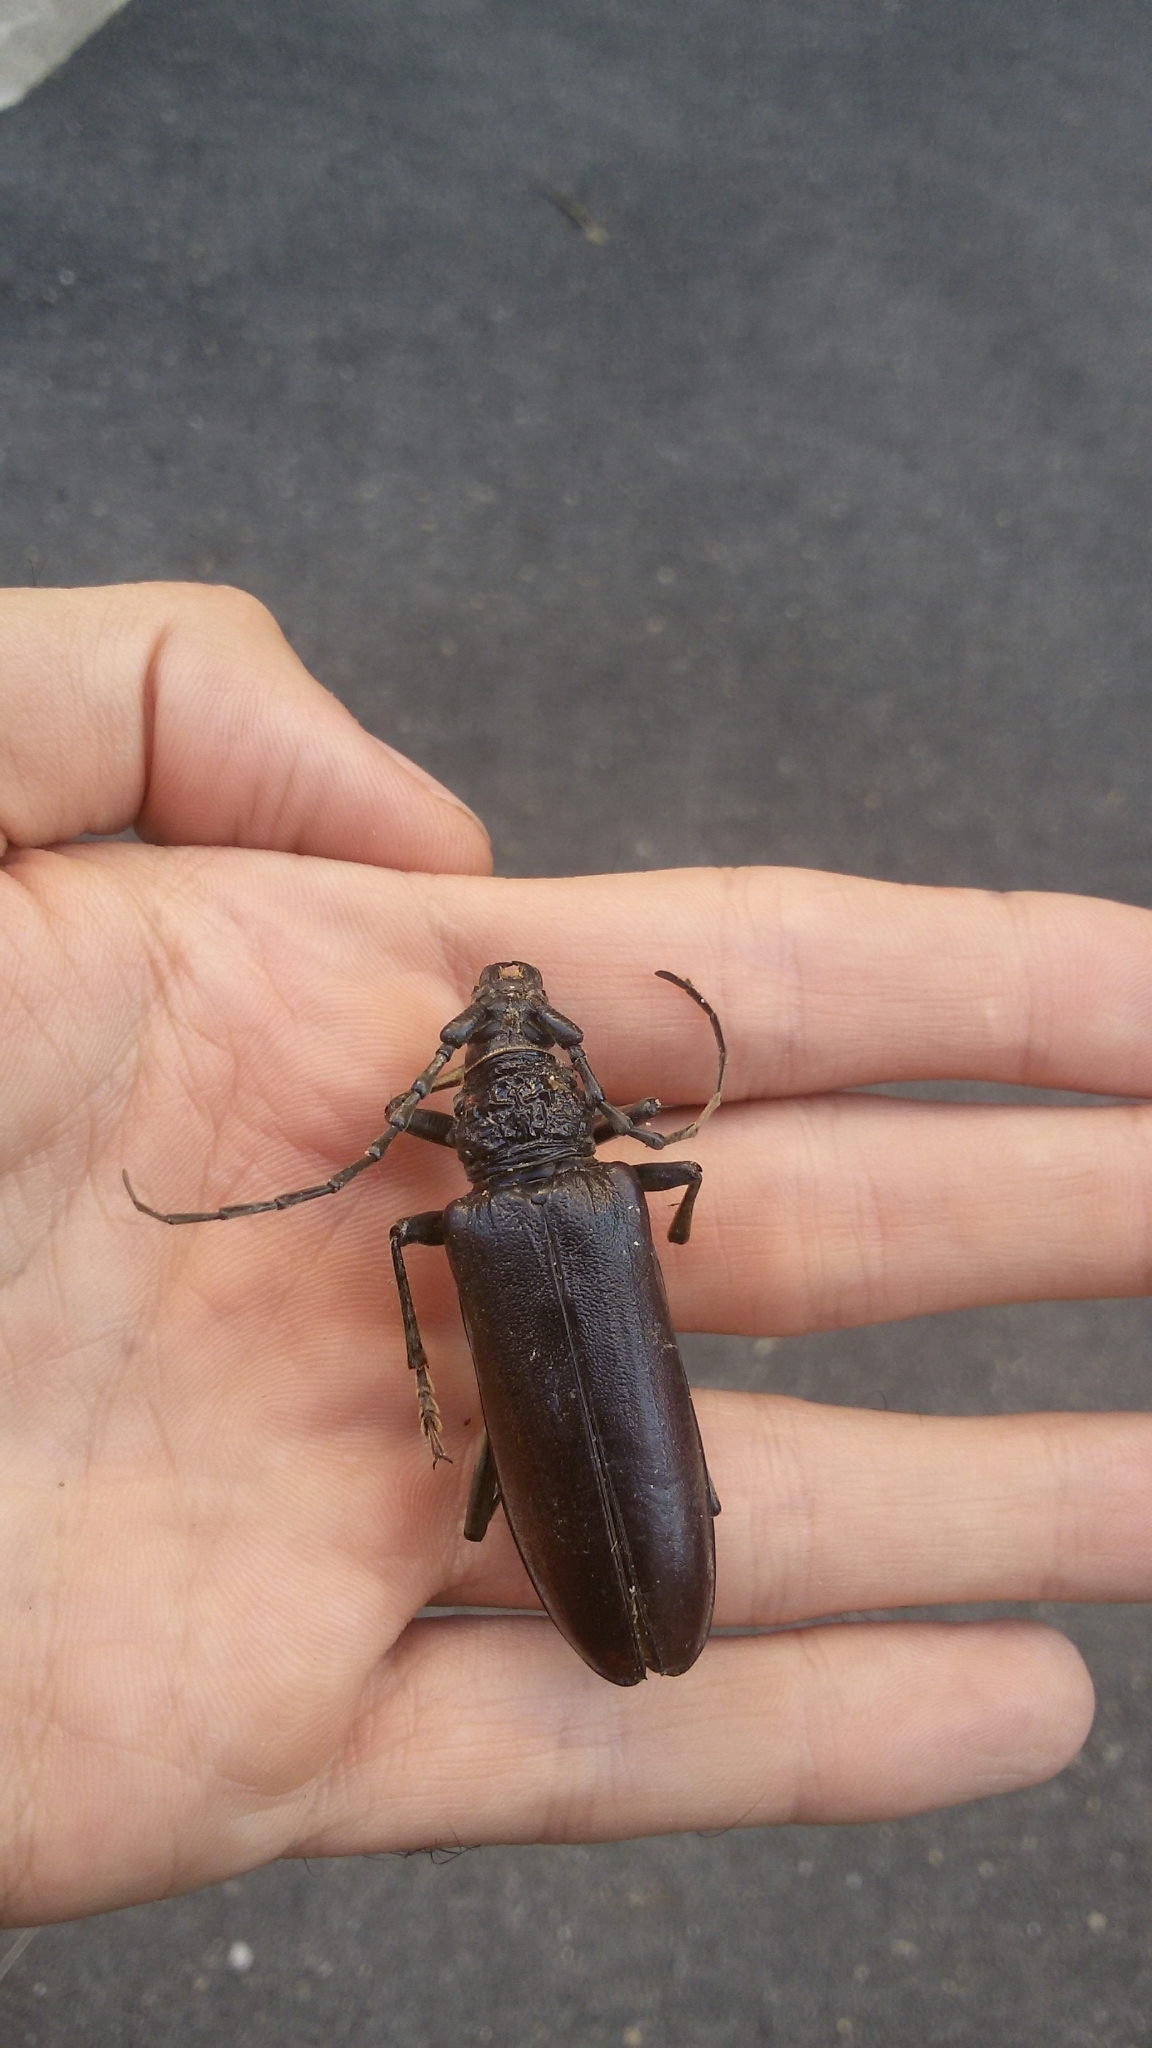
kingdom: Animalia
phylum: Arthropoda
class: Insecta
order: Coleoptera
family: Cerambycidae
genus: Cerambyx
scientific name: Cerambyx welensii
